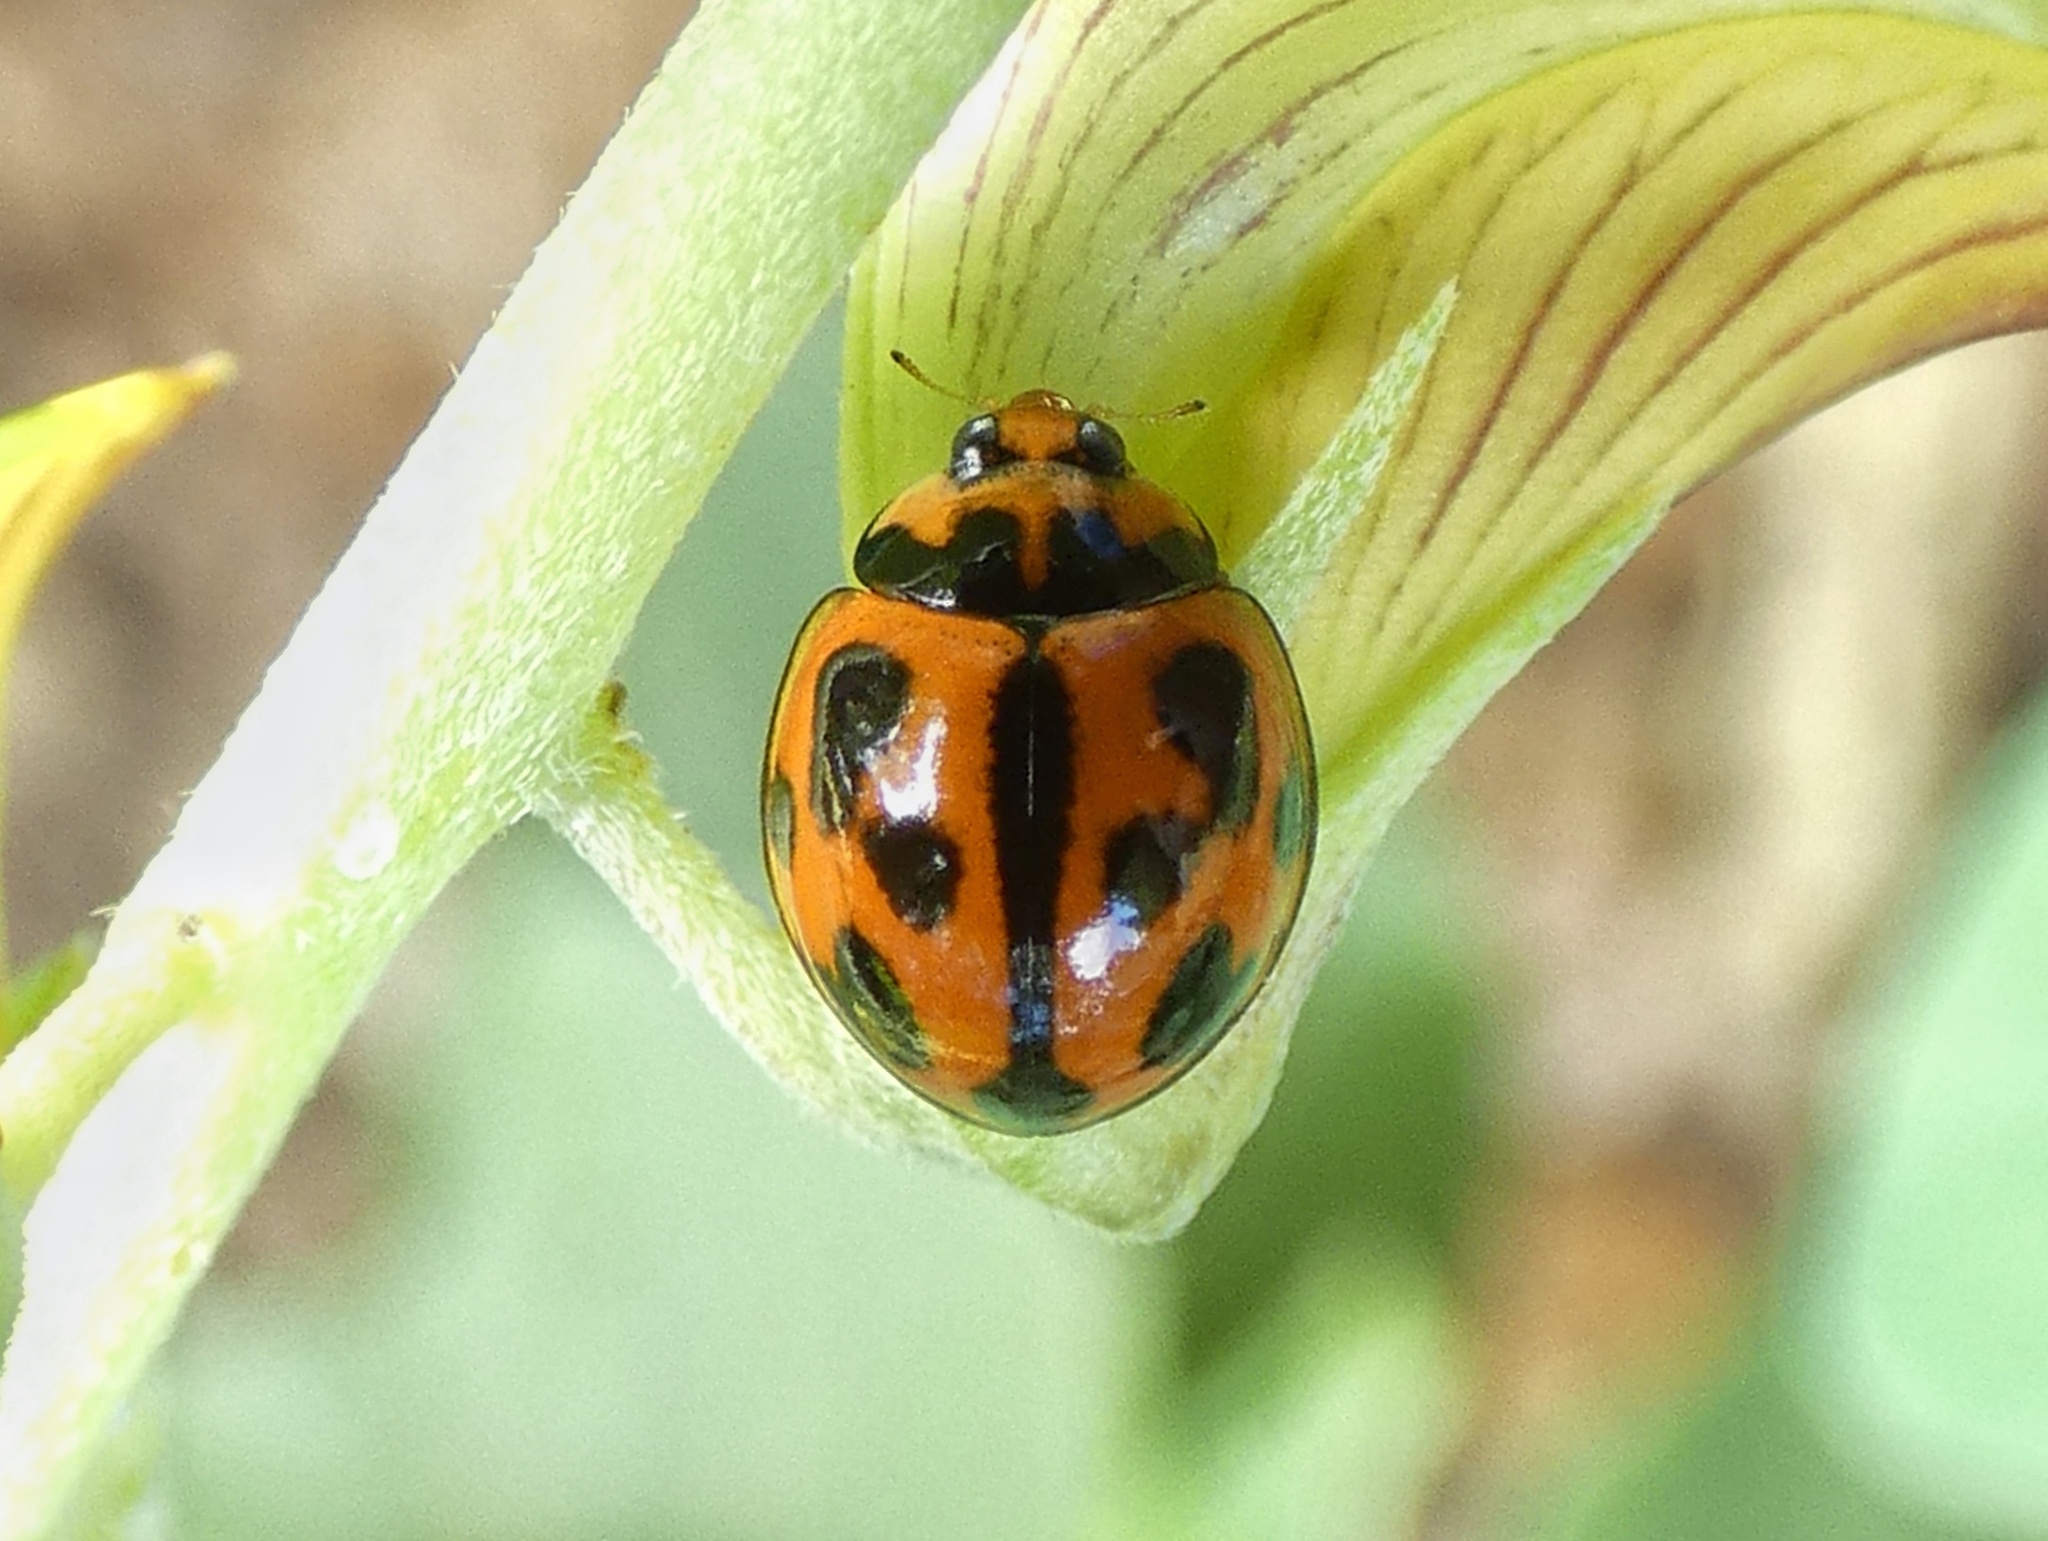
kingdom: Animalia
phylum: Arthropoda
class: Insecta
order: Coleoptera
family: Coccinellidae
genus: Coelophora
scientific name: Coelophora inaequalis
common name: Common australian lady beetle
